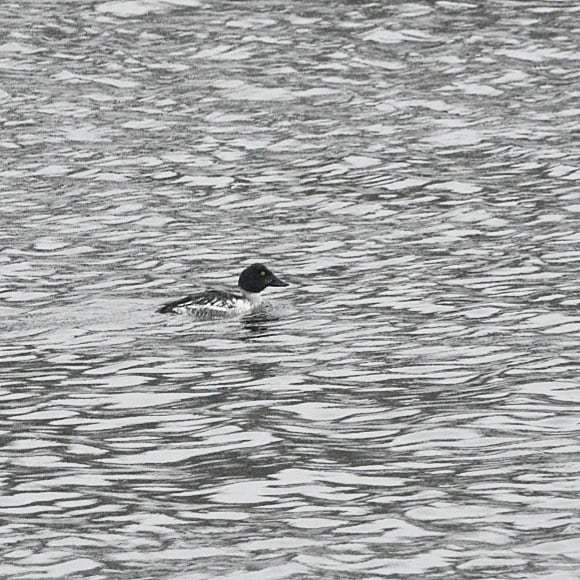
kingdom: Animalia
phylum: Chordata
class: Aves
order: Anseriformes
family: Anatidae
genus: Bucephala
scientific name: Bucephala clangula
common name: Common goldeneye
